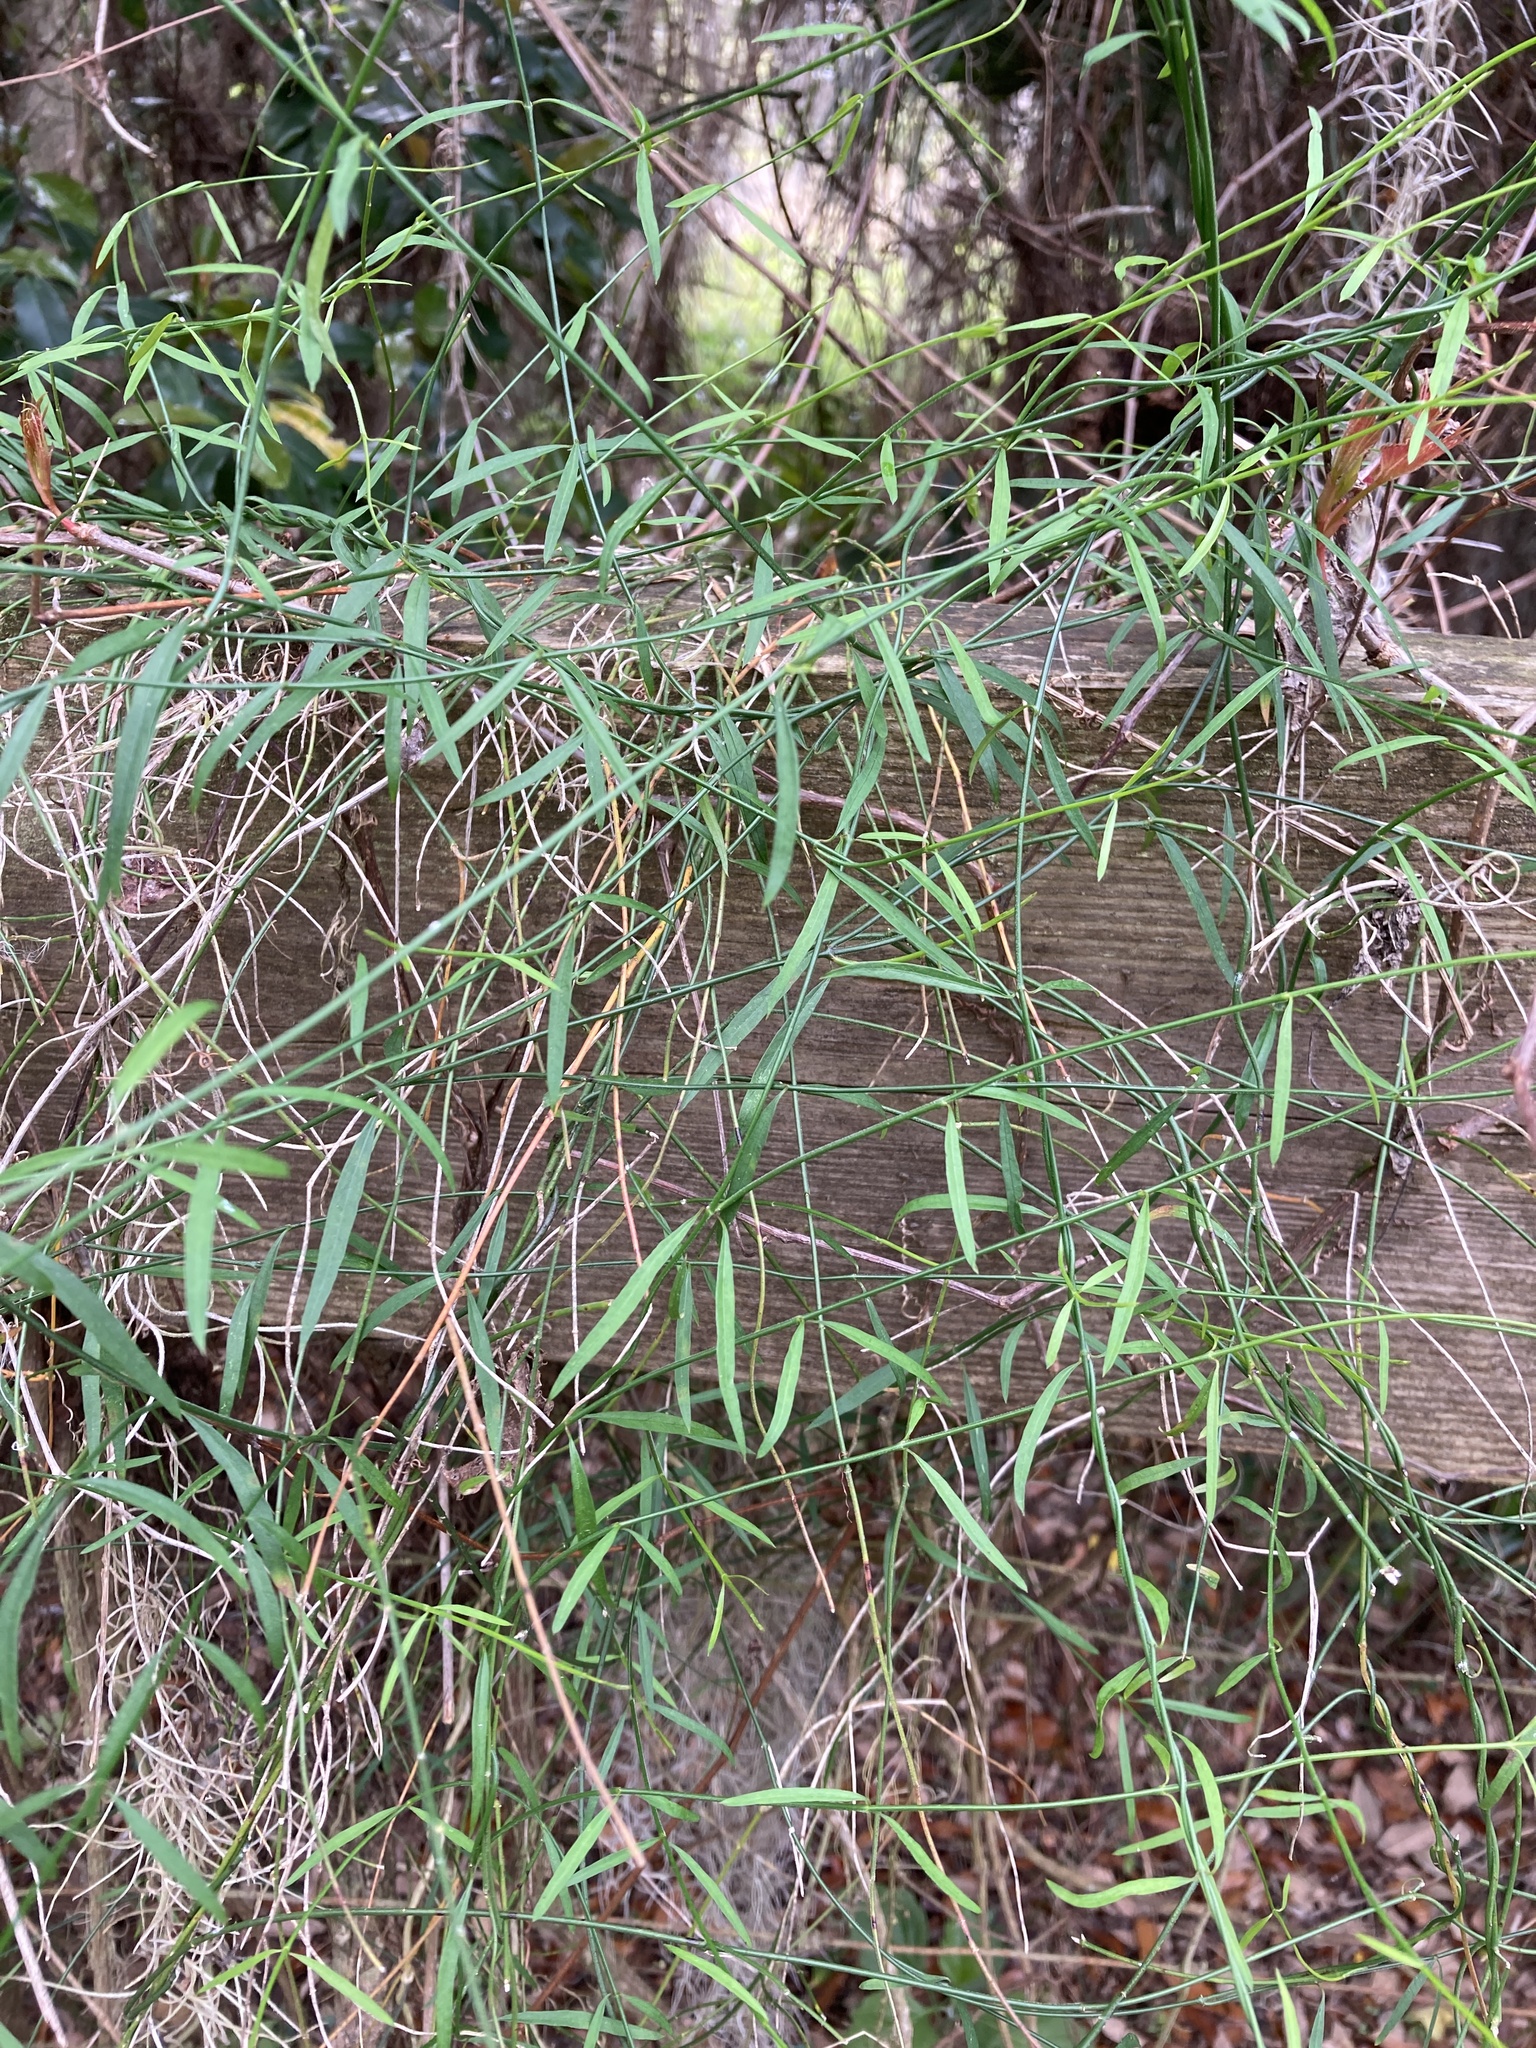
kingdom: Plantae
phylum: Tracheophyta
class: Magnoliopsida
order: Gentianales
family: Apocynaceae
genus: Orthosia
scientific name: Orthosia scoparia
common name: Leafless swallow-wort
